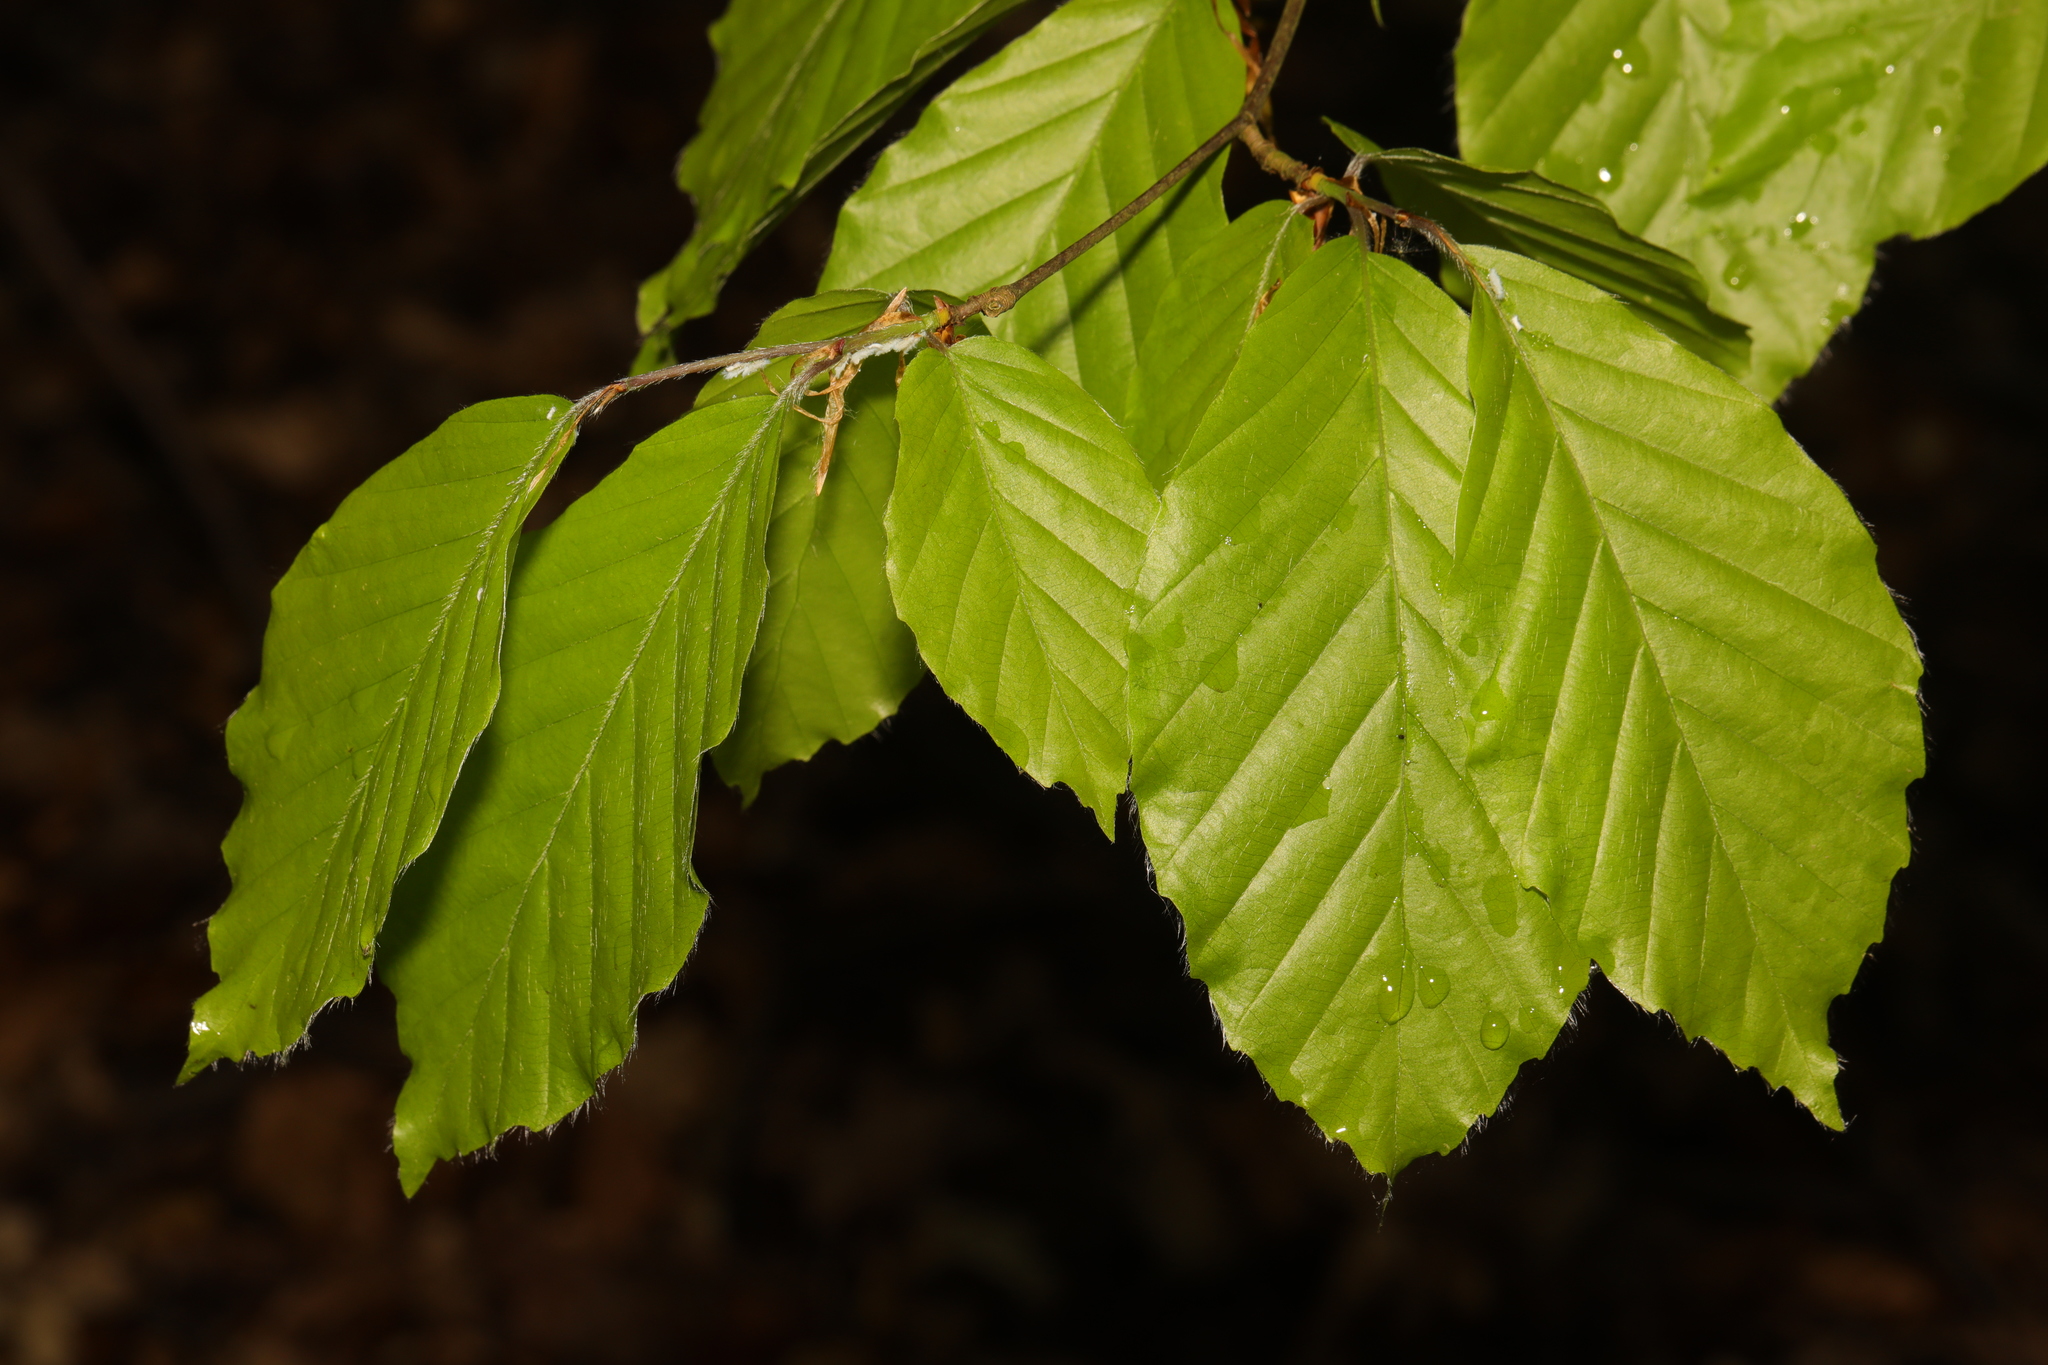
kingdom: Plantae
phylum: Tracheophyta
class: Magnoliopsida
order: Fagales
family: Fagaceae
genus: Fagus
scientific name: Fagus sylvatica
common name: Beech
